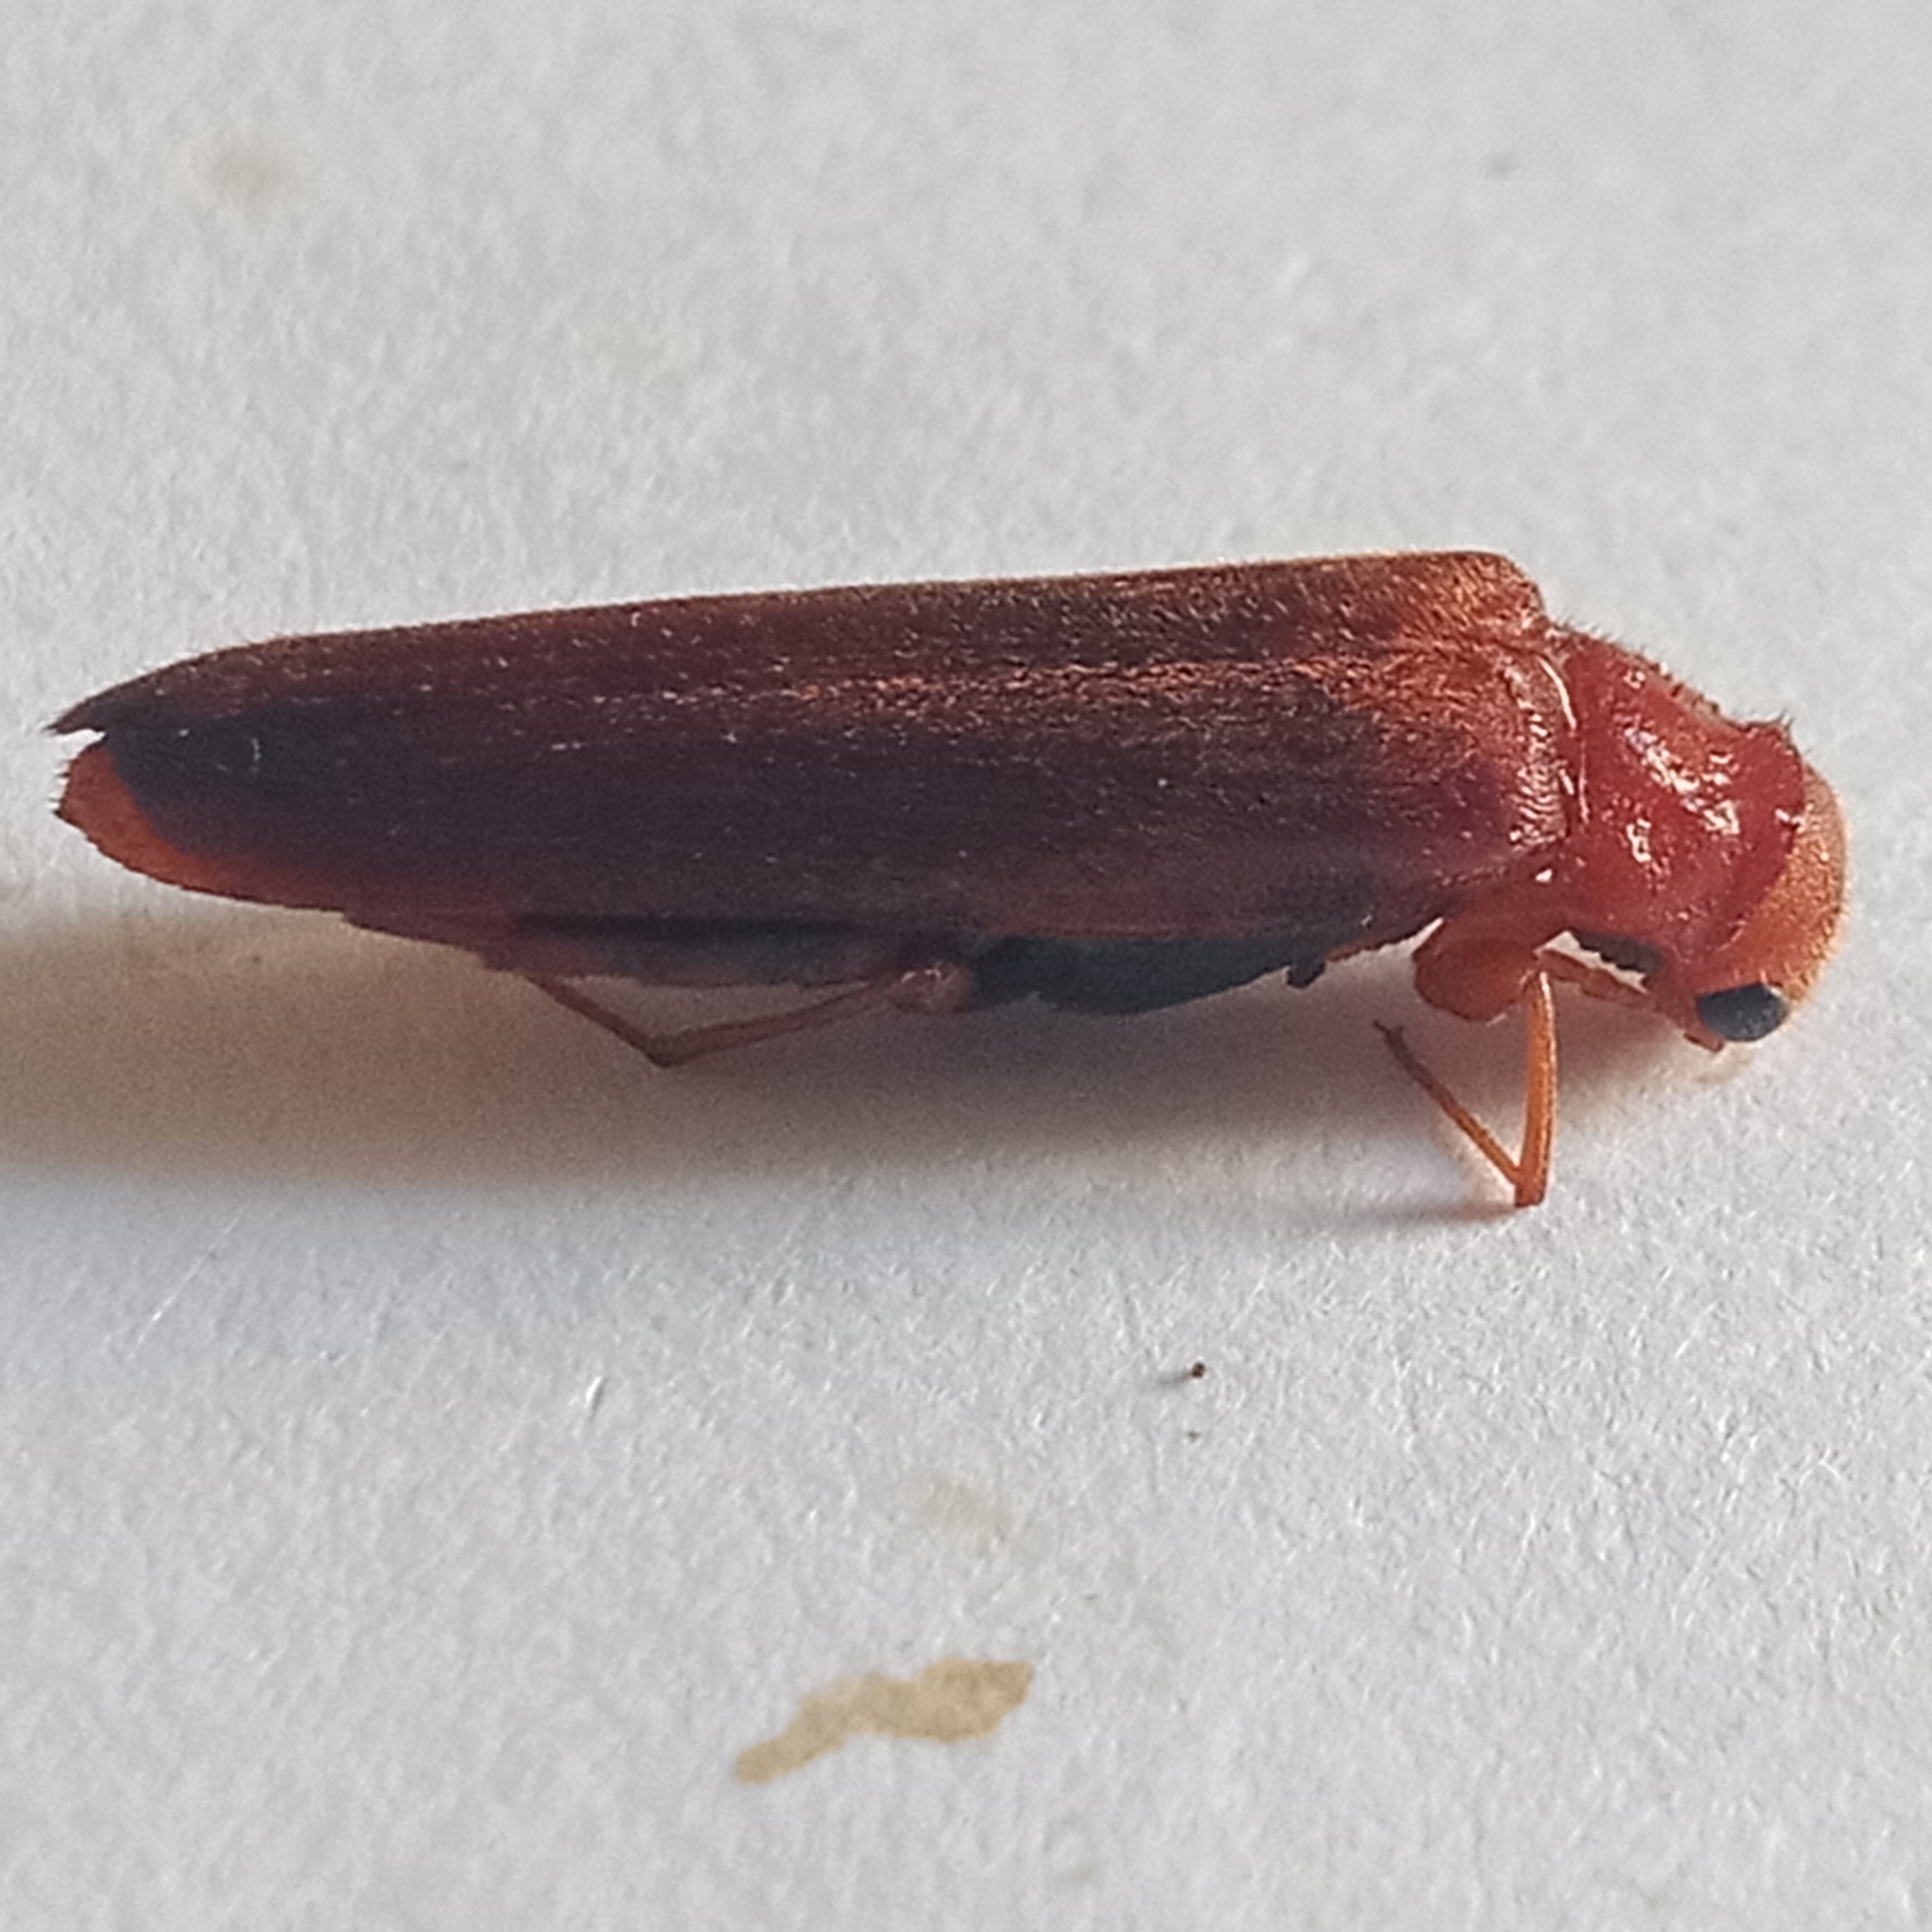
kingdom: Animalia
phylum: Arthropoda
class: Insecta
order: Coleoptera
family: Lymexylidae
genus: Hylecoetus
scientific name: Hylecoetus dermestoides
